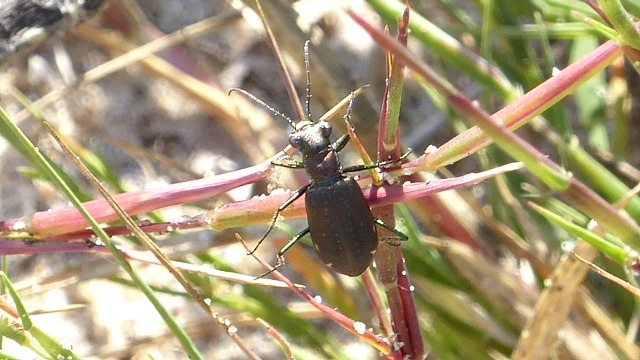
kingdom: Animalia
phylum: Arthropoda
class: Insecta
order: Coleoptera
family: Carabidae
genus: Cicindela
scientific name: Cicindela punctulata
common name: Punctured tiger beetle
